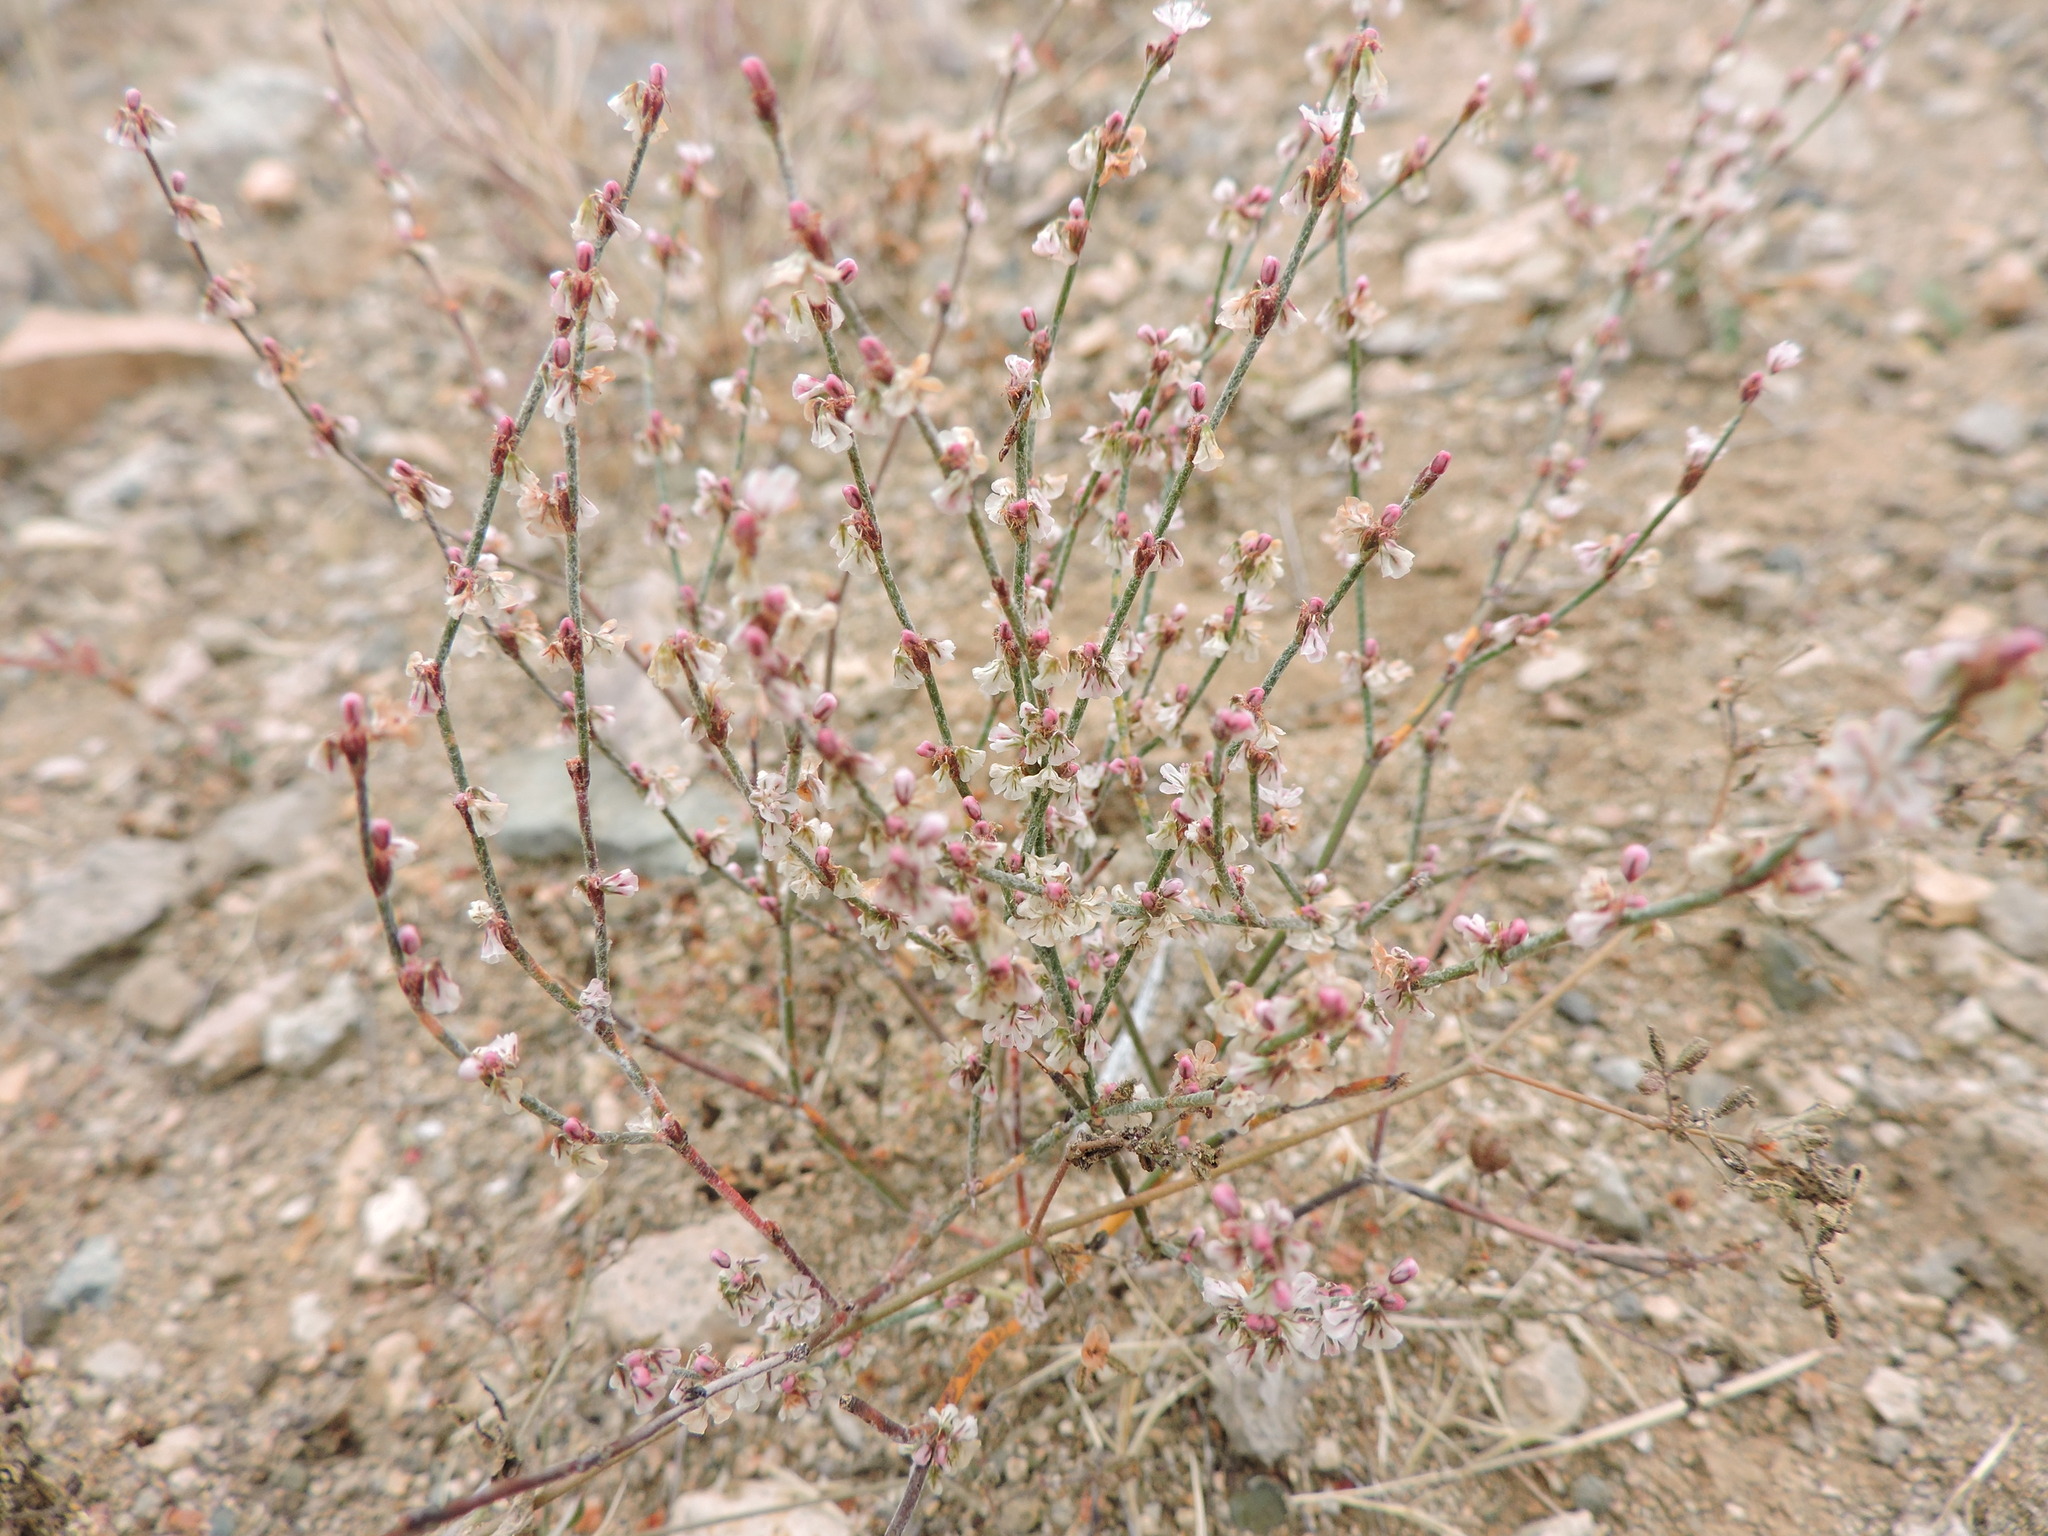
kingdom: Plantae
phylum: Tracheophyta
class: Magnoliopsida
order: Caryophyllales
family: Polygonaceae
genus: Eriogonum
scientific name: Eriogonum palmerianum
